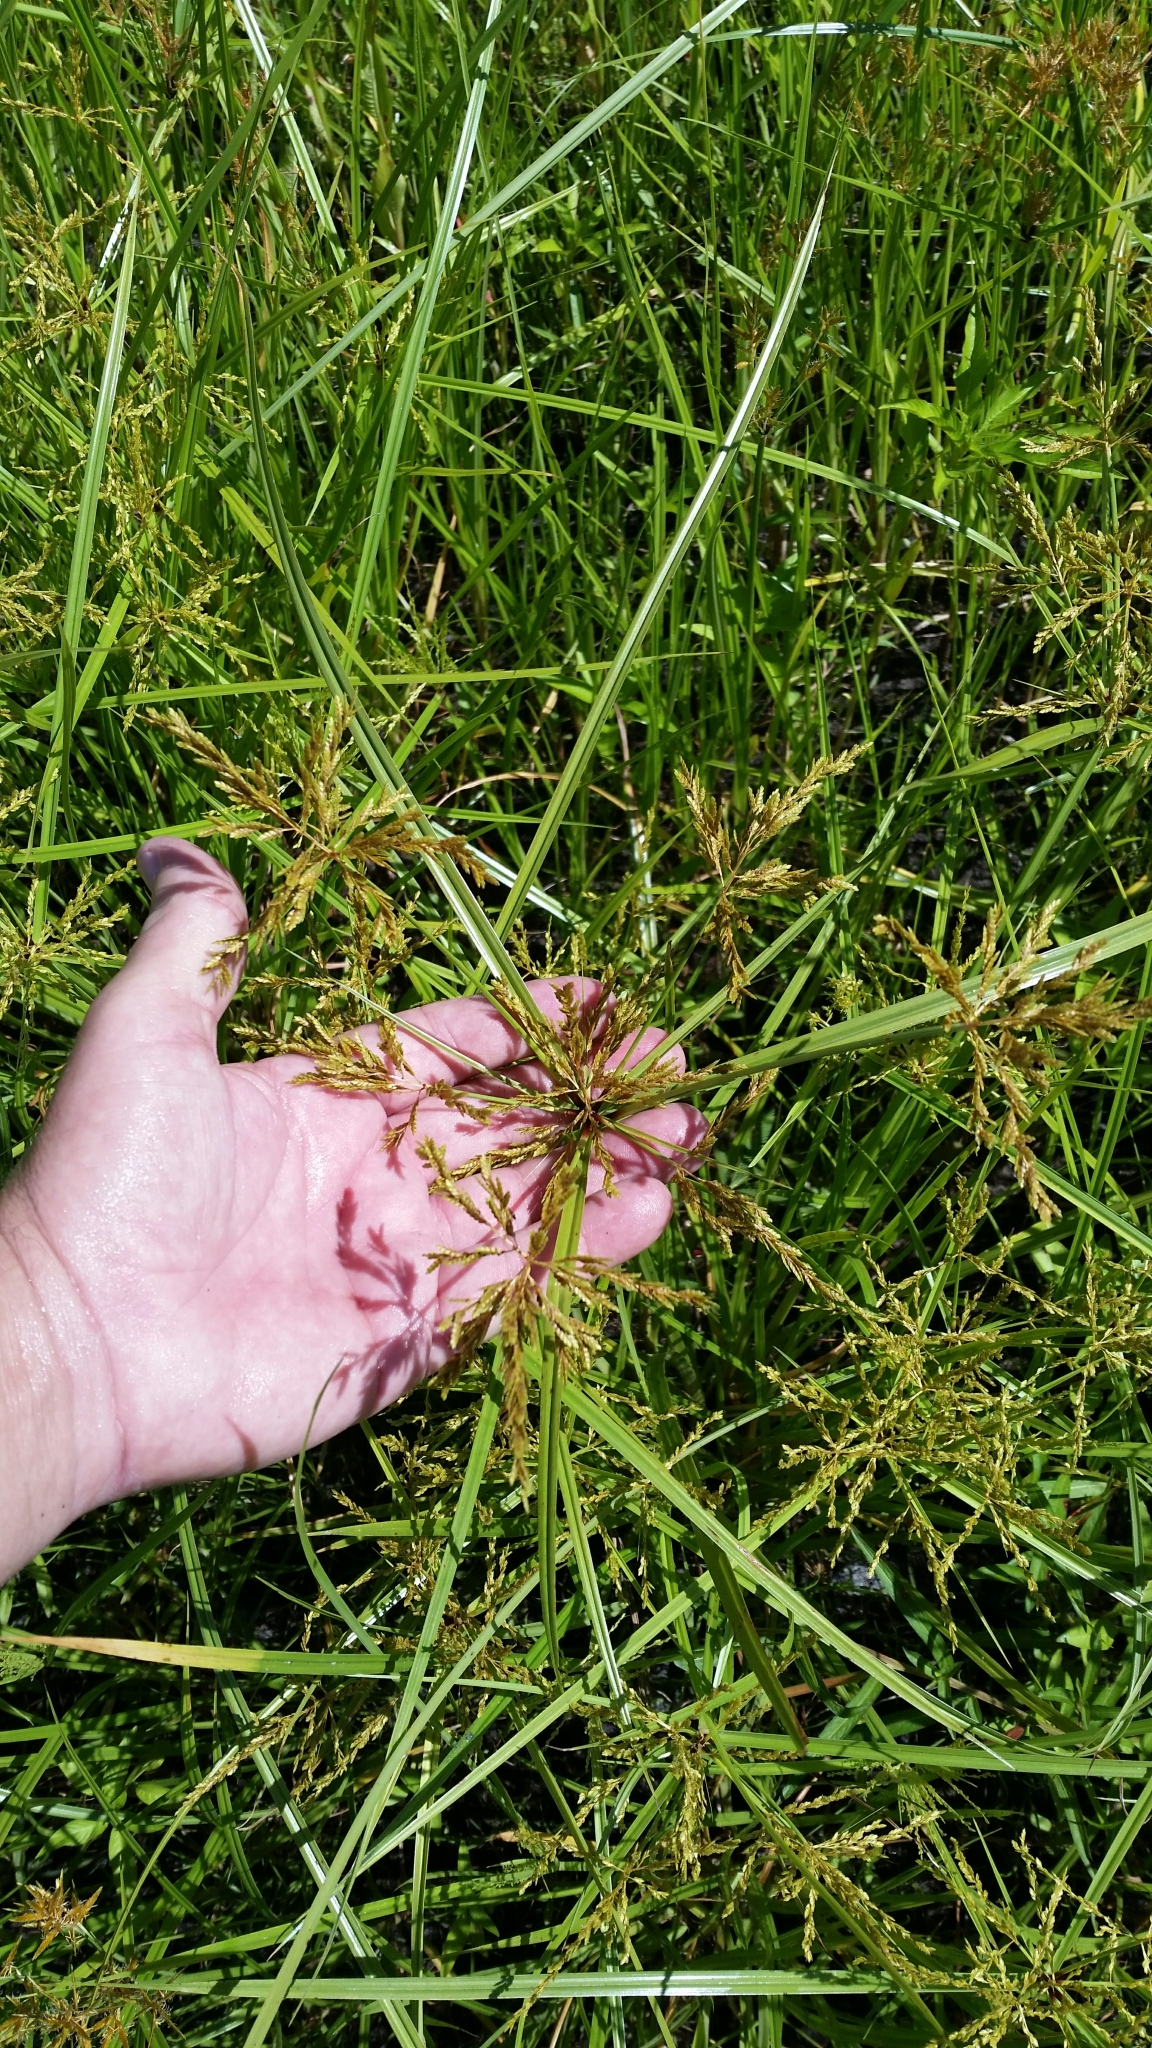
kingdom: Plantae
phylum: Tracheophyta
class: Liliopsida
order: Poales
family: Cyperaceae
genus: Cyperus
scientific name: Cyperus iria
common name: Ricefield flatsedge
